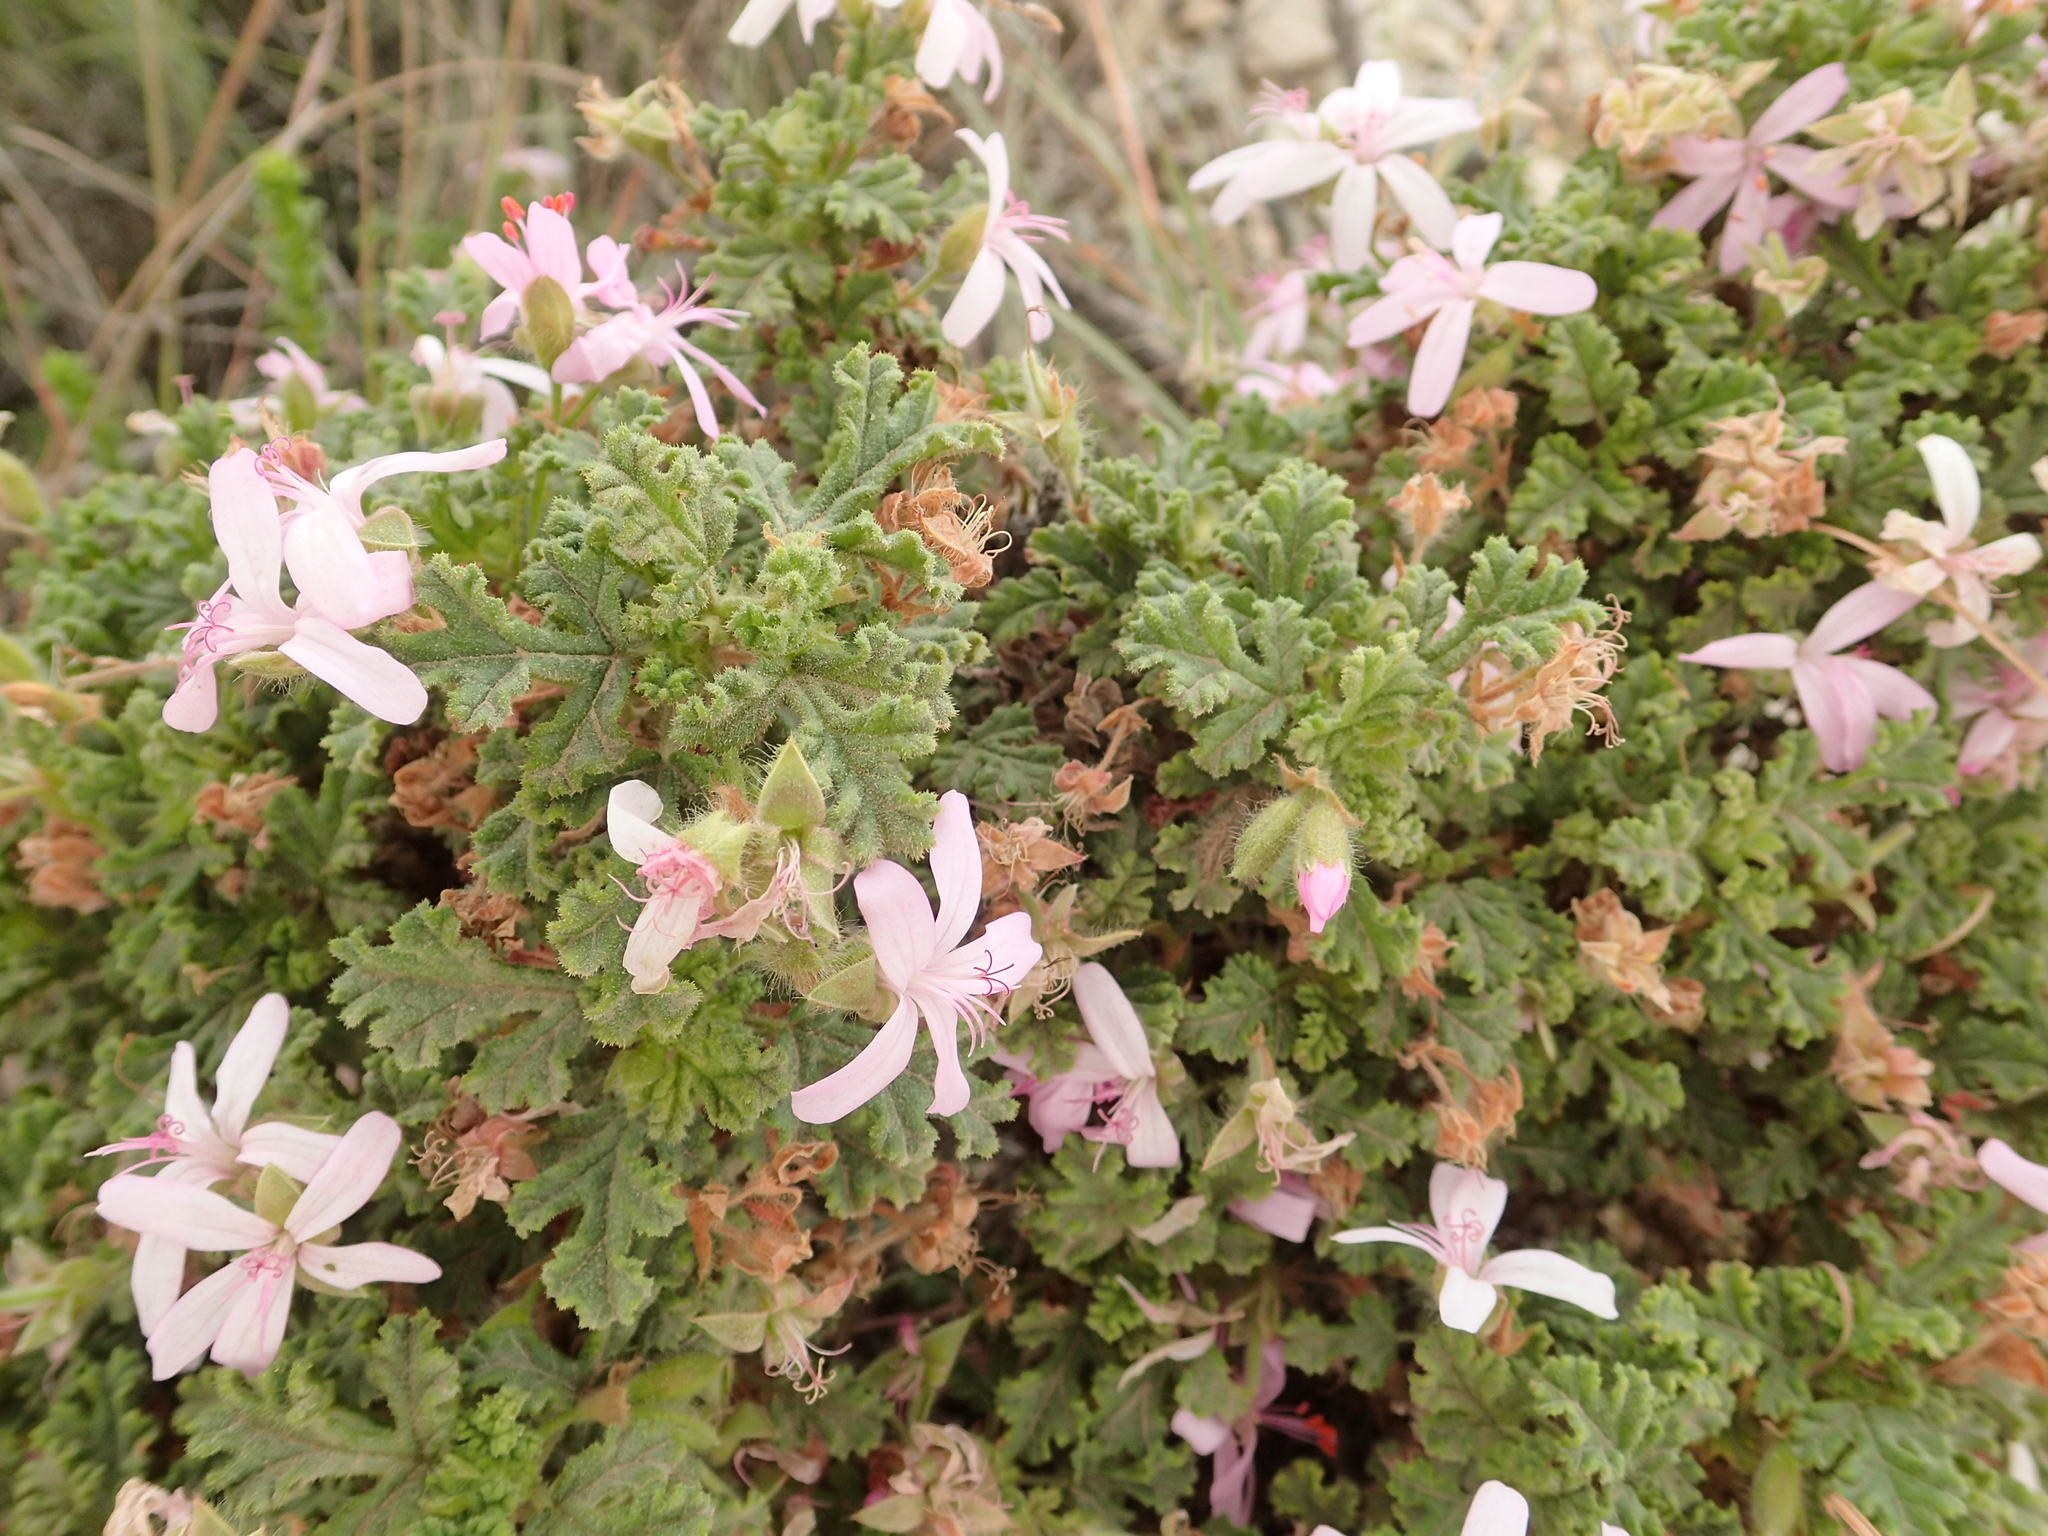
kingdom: Plantae
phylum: Tracheophyta
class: Magnoliopsida
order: Geraniales
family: Geraniaceae
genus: Pelargonium
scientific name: Pelargonium quercifolium
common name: Oakleaf geranium
